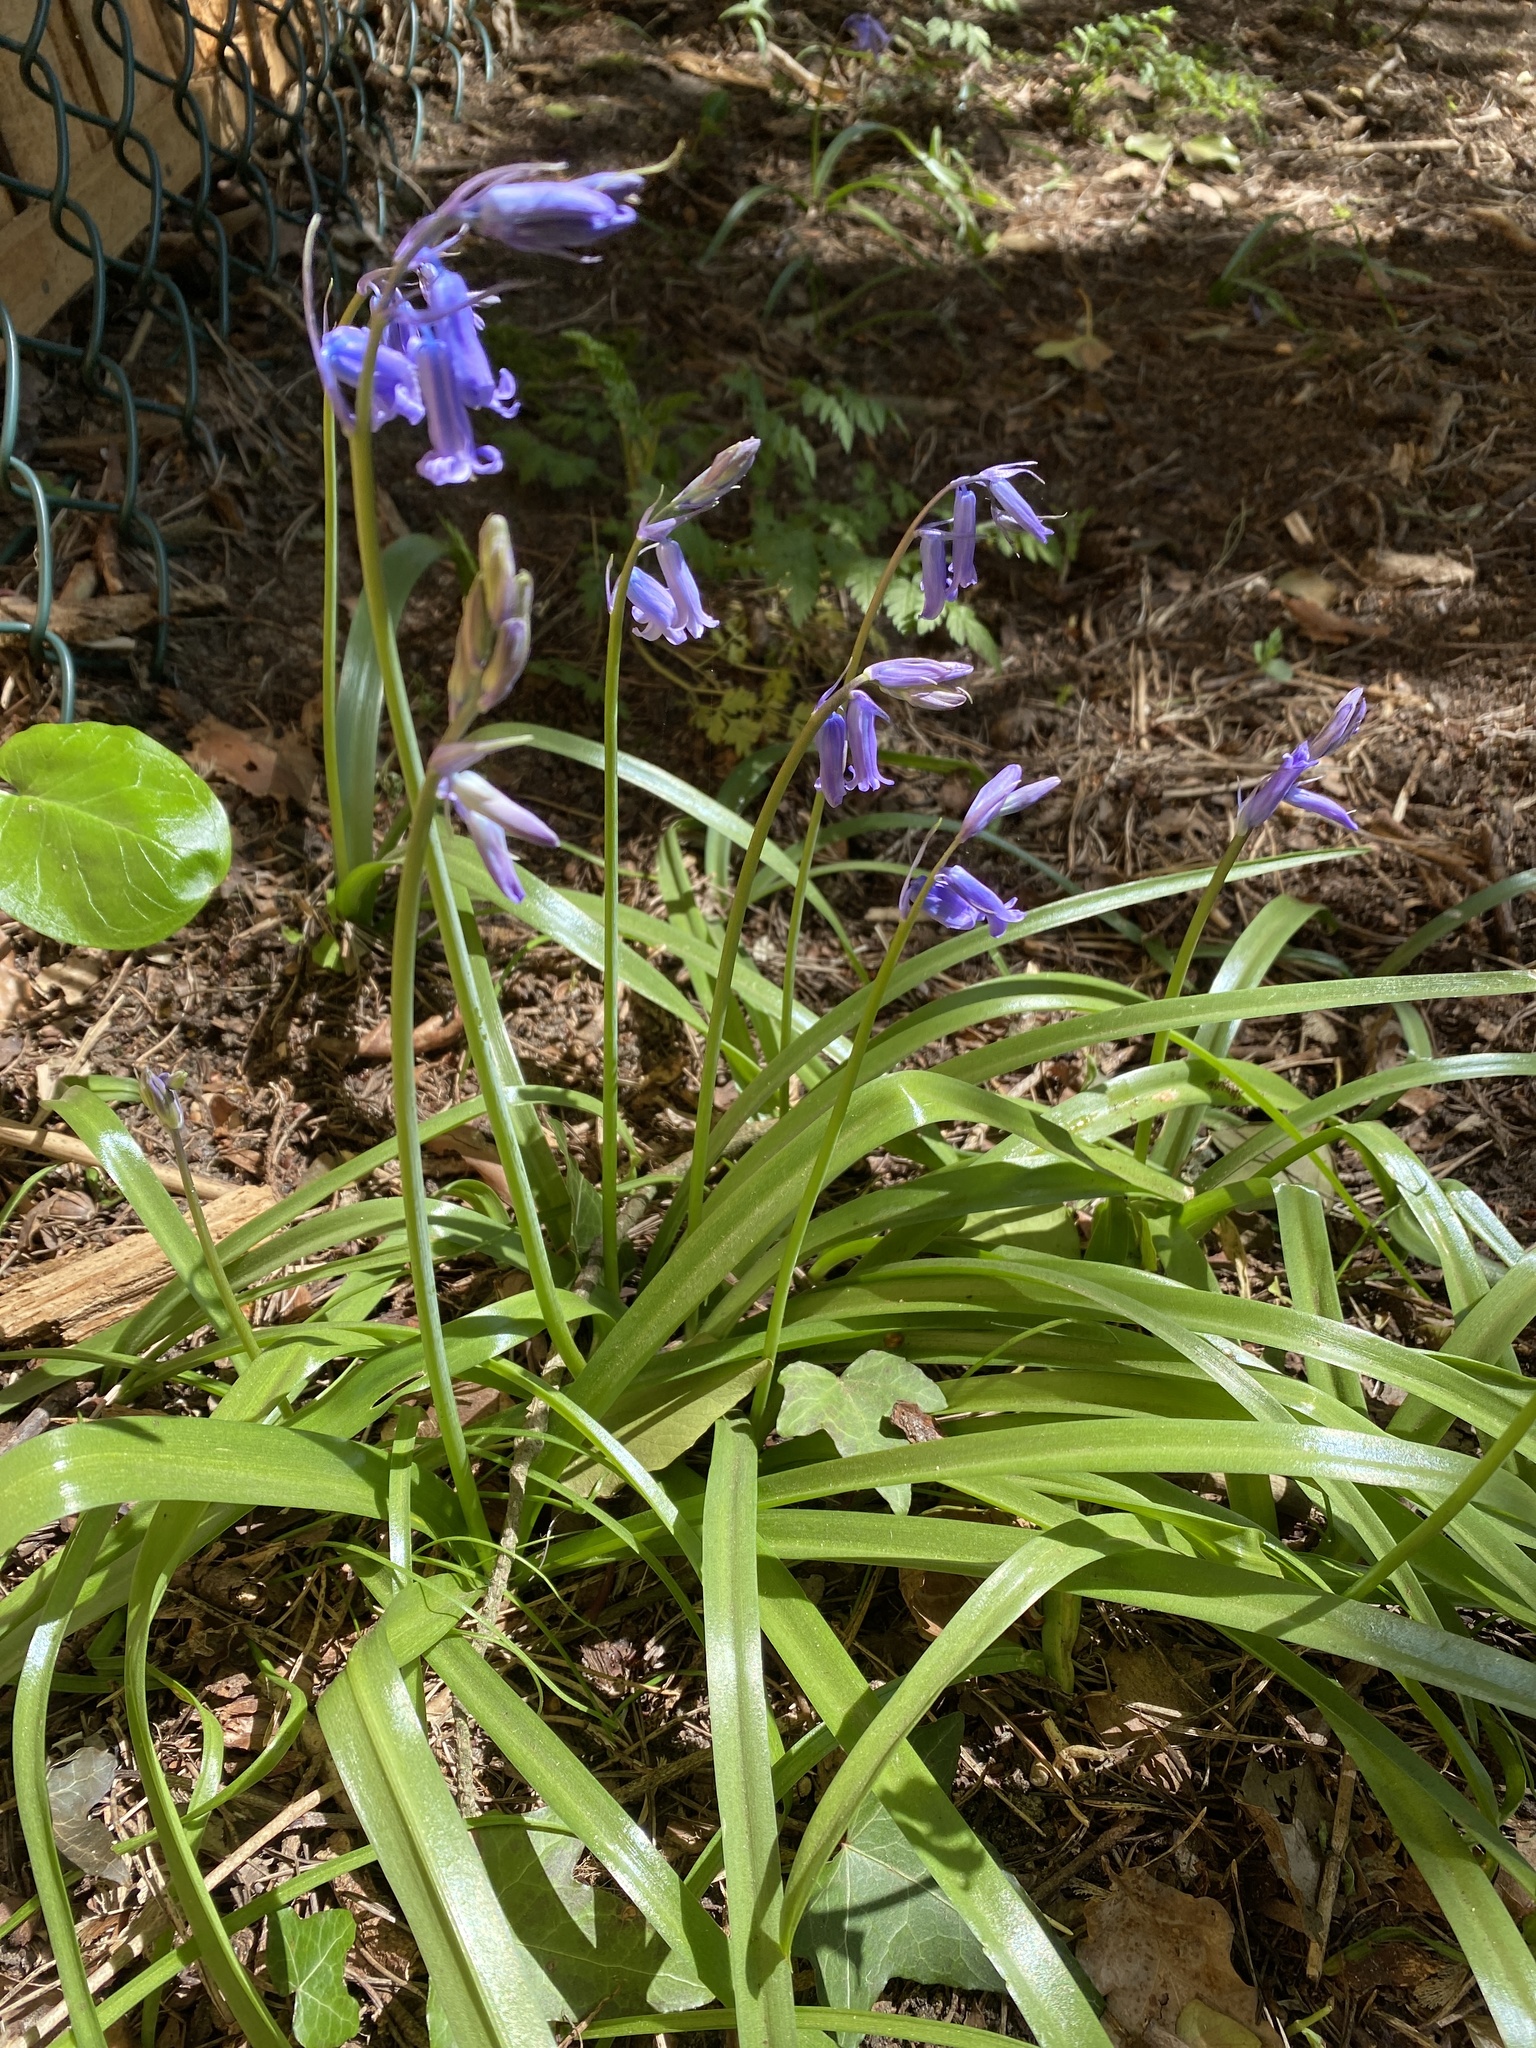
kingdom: Plantae
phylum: Tracheophyta
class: Liliopsida
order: Asparagales
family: Asparagaceae
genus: Hyacinthoides
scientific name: Hyacinthoides non-scripta
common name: Bluebell
